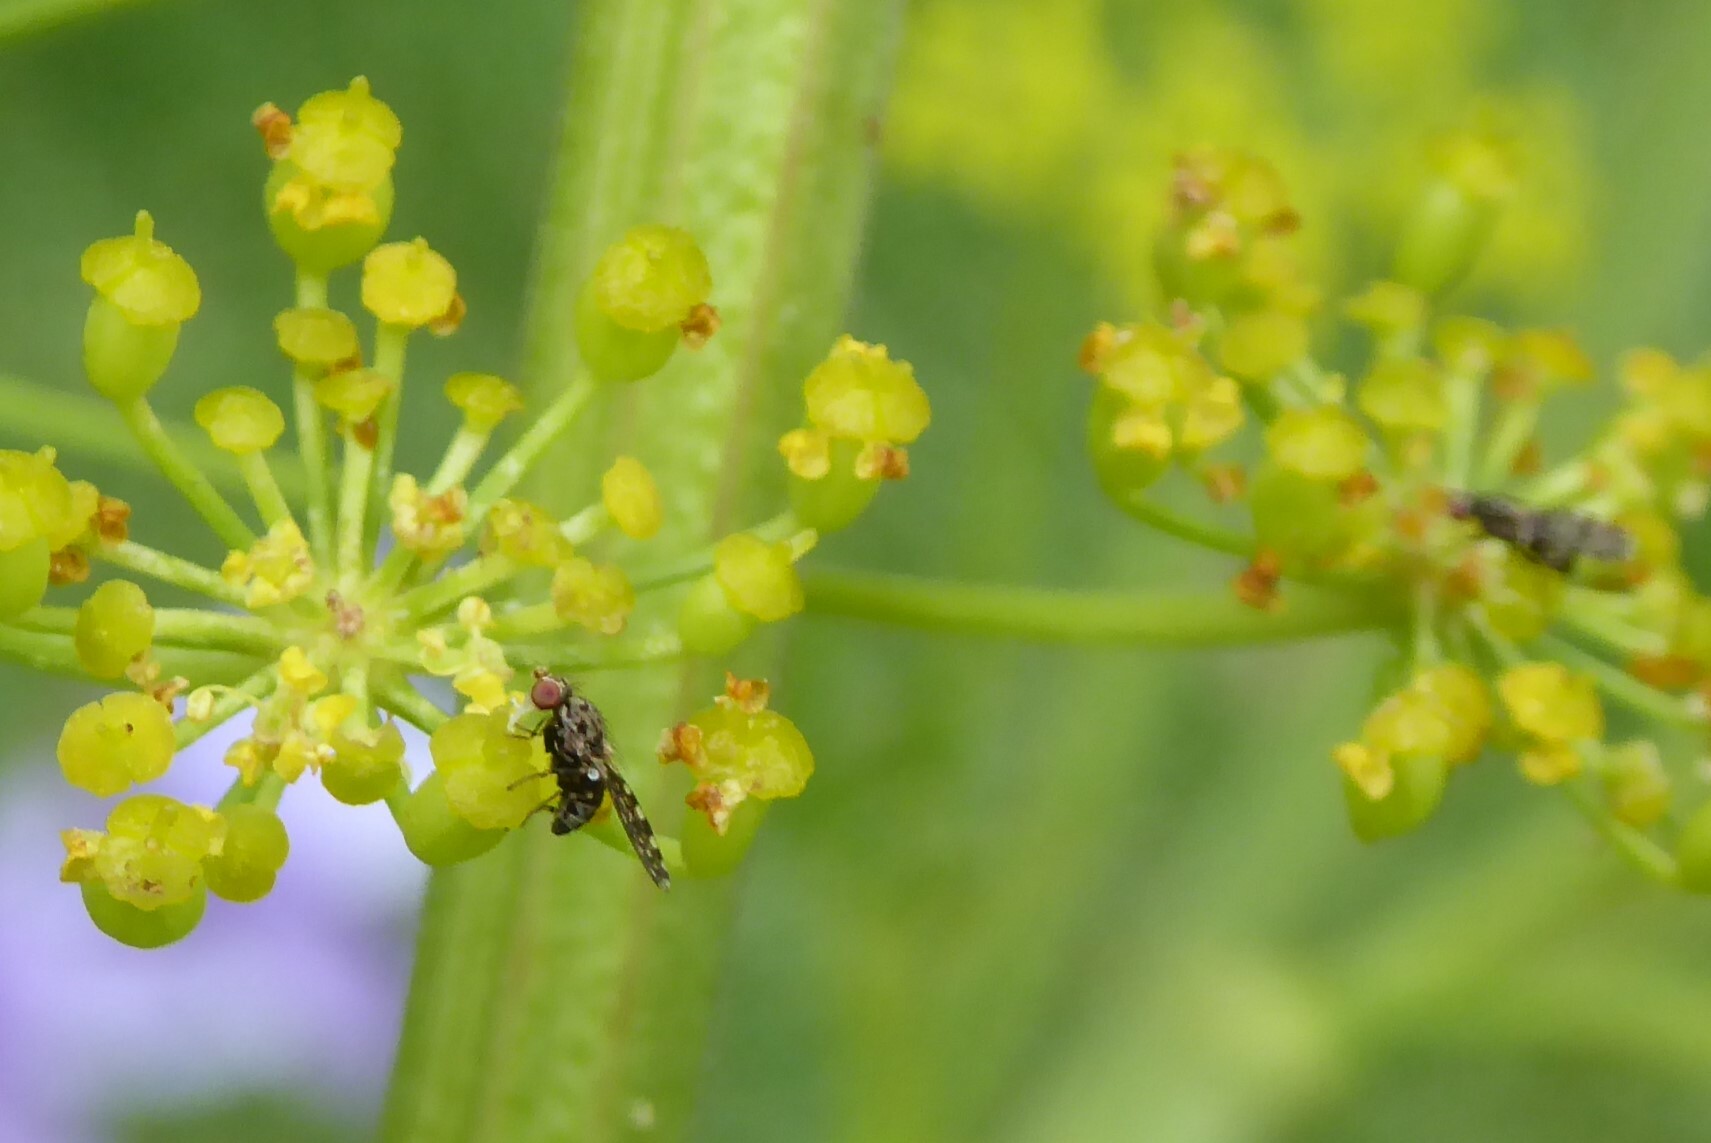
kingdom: Animalia
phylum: Arthropoda
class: Insecta
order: Diptera
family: Heleomyzidae
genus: Xeneura
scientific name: Xeneura picata
